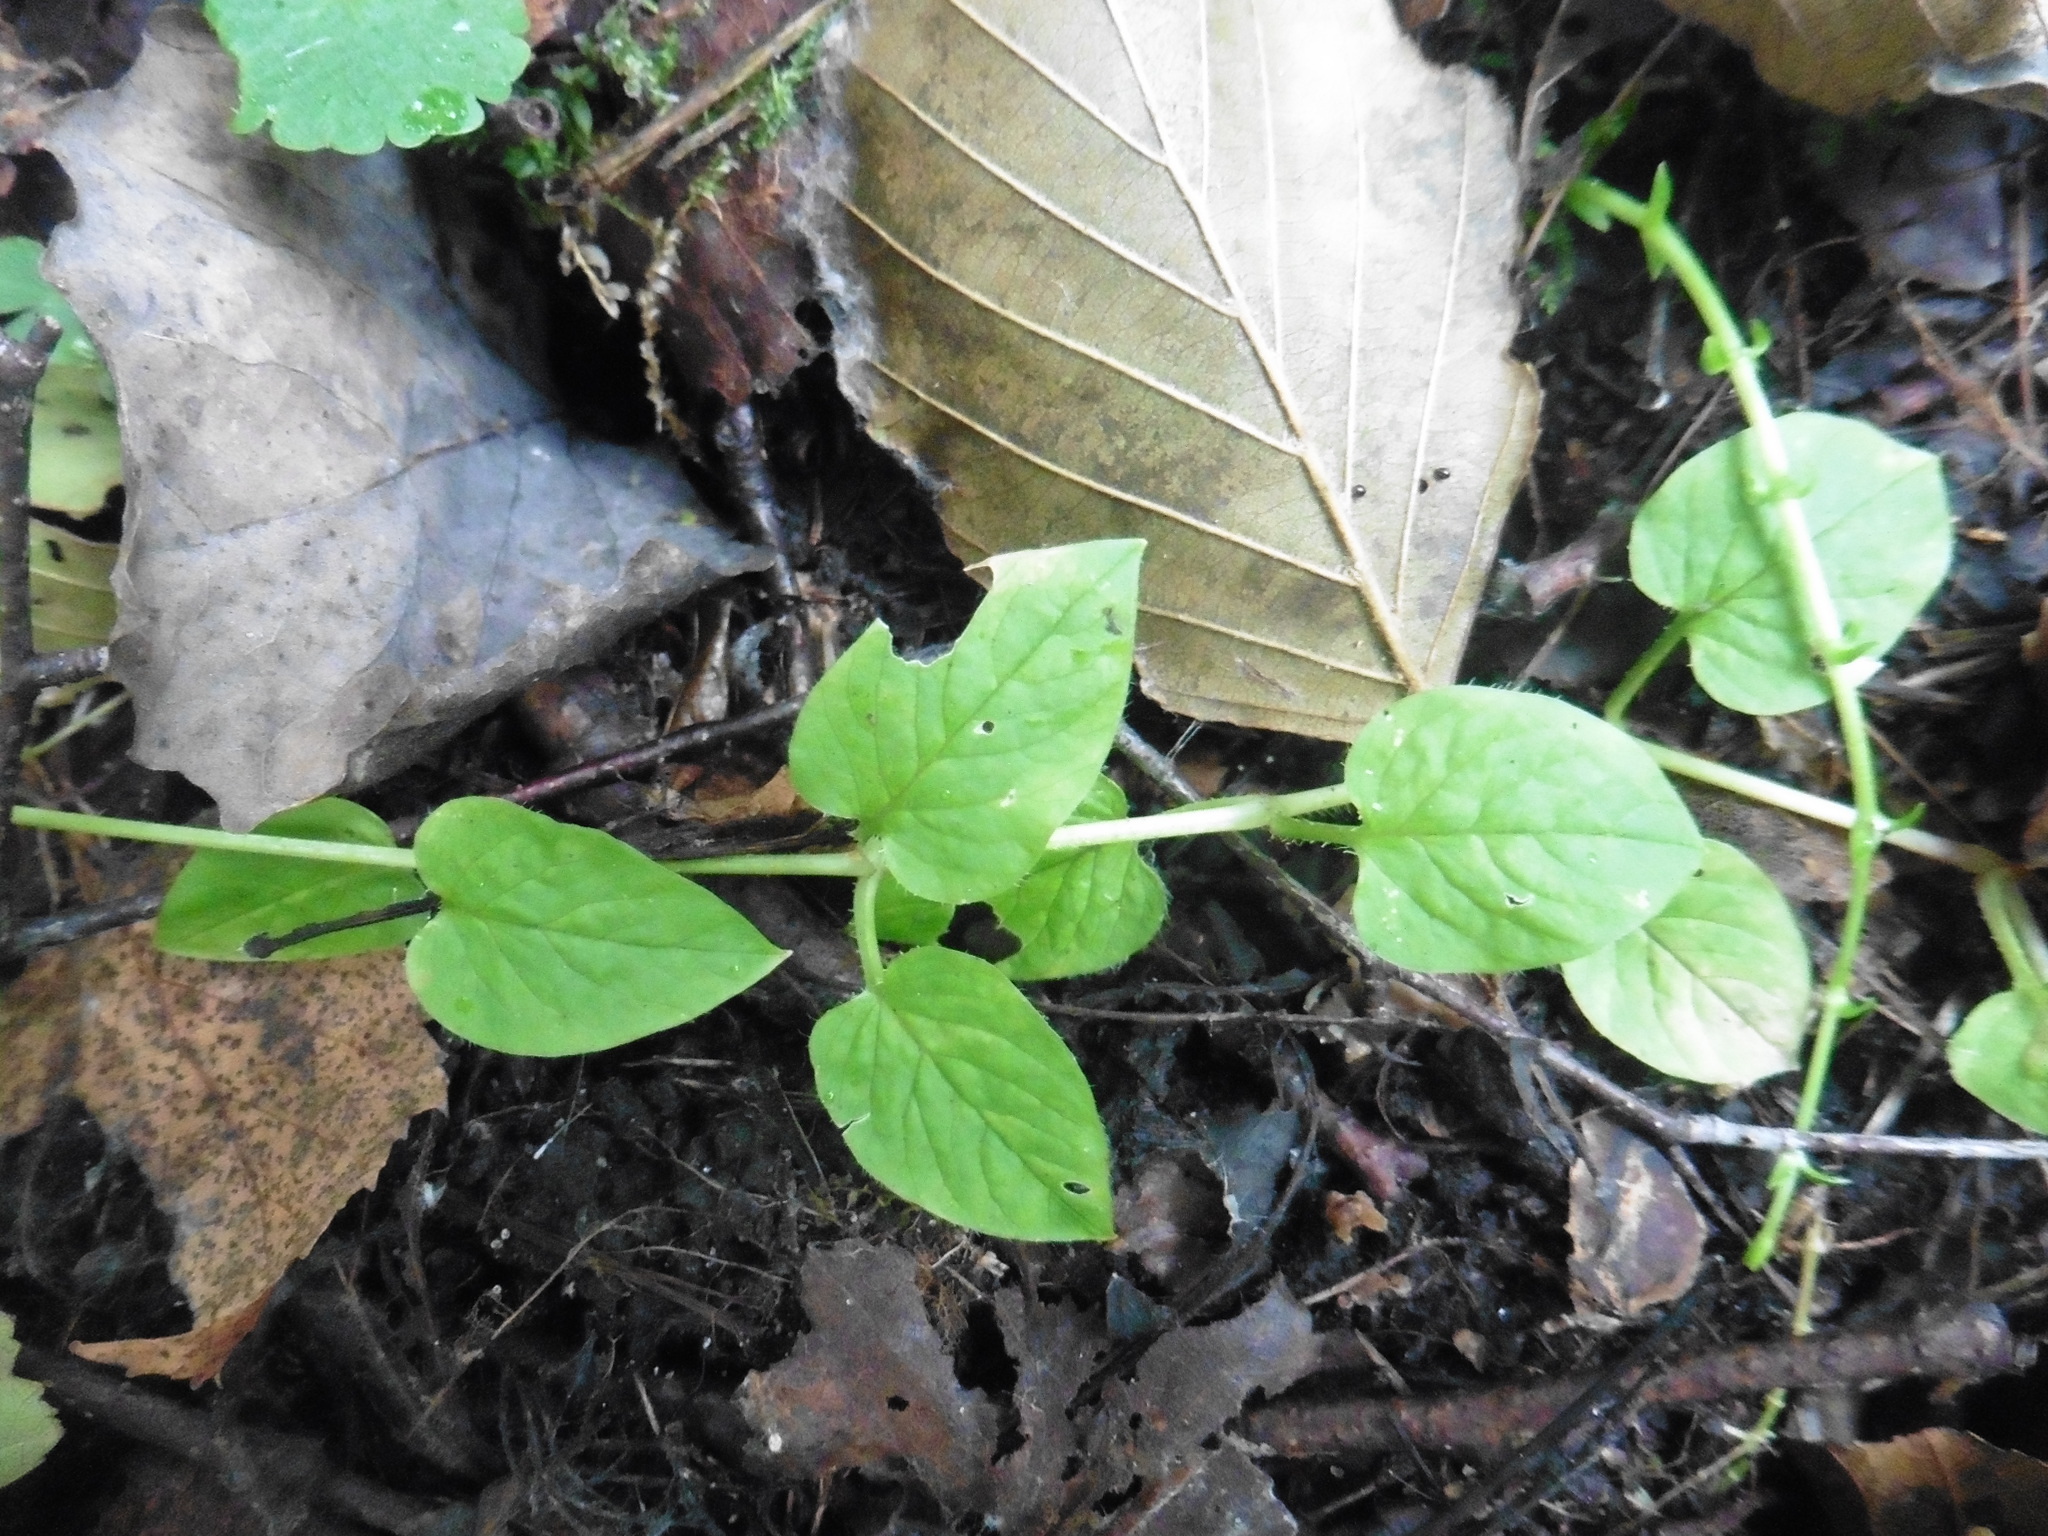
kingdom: Plantae
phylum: Tracheophyta
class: Magnoliopsida
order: Caryophyllales
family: Caryophyllaceae
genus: Stellaria
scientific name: Stellaria nemorum
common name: Wood stitchwort
